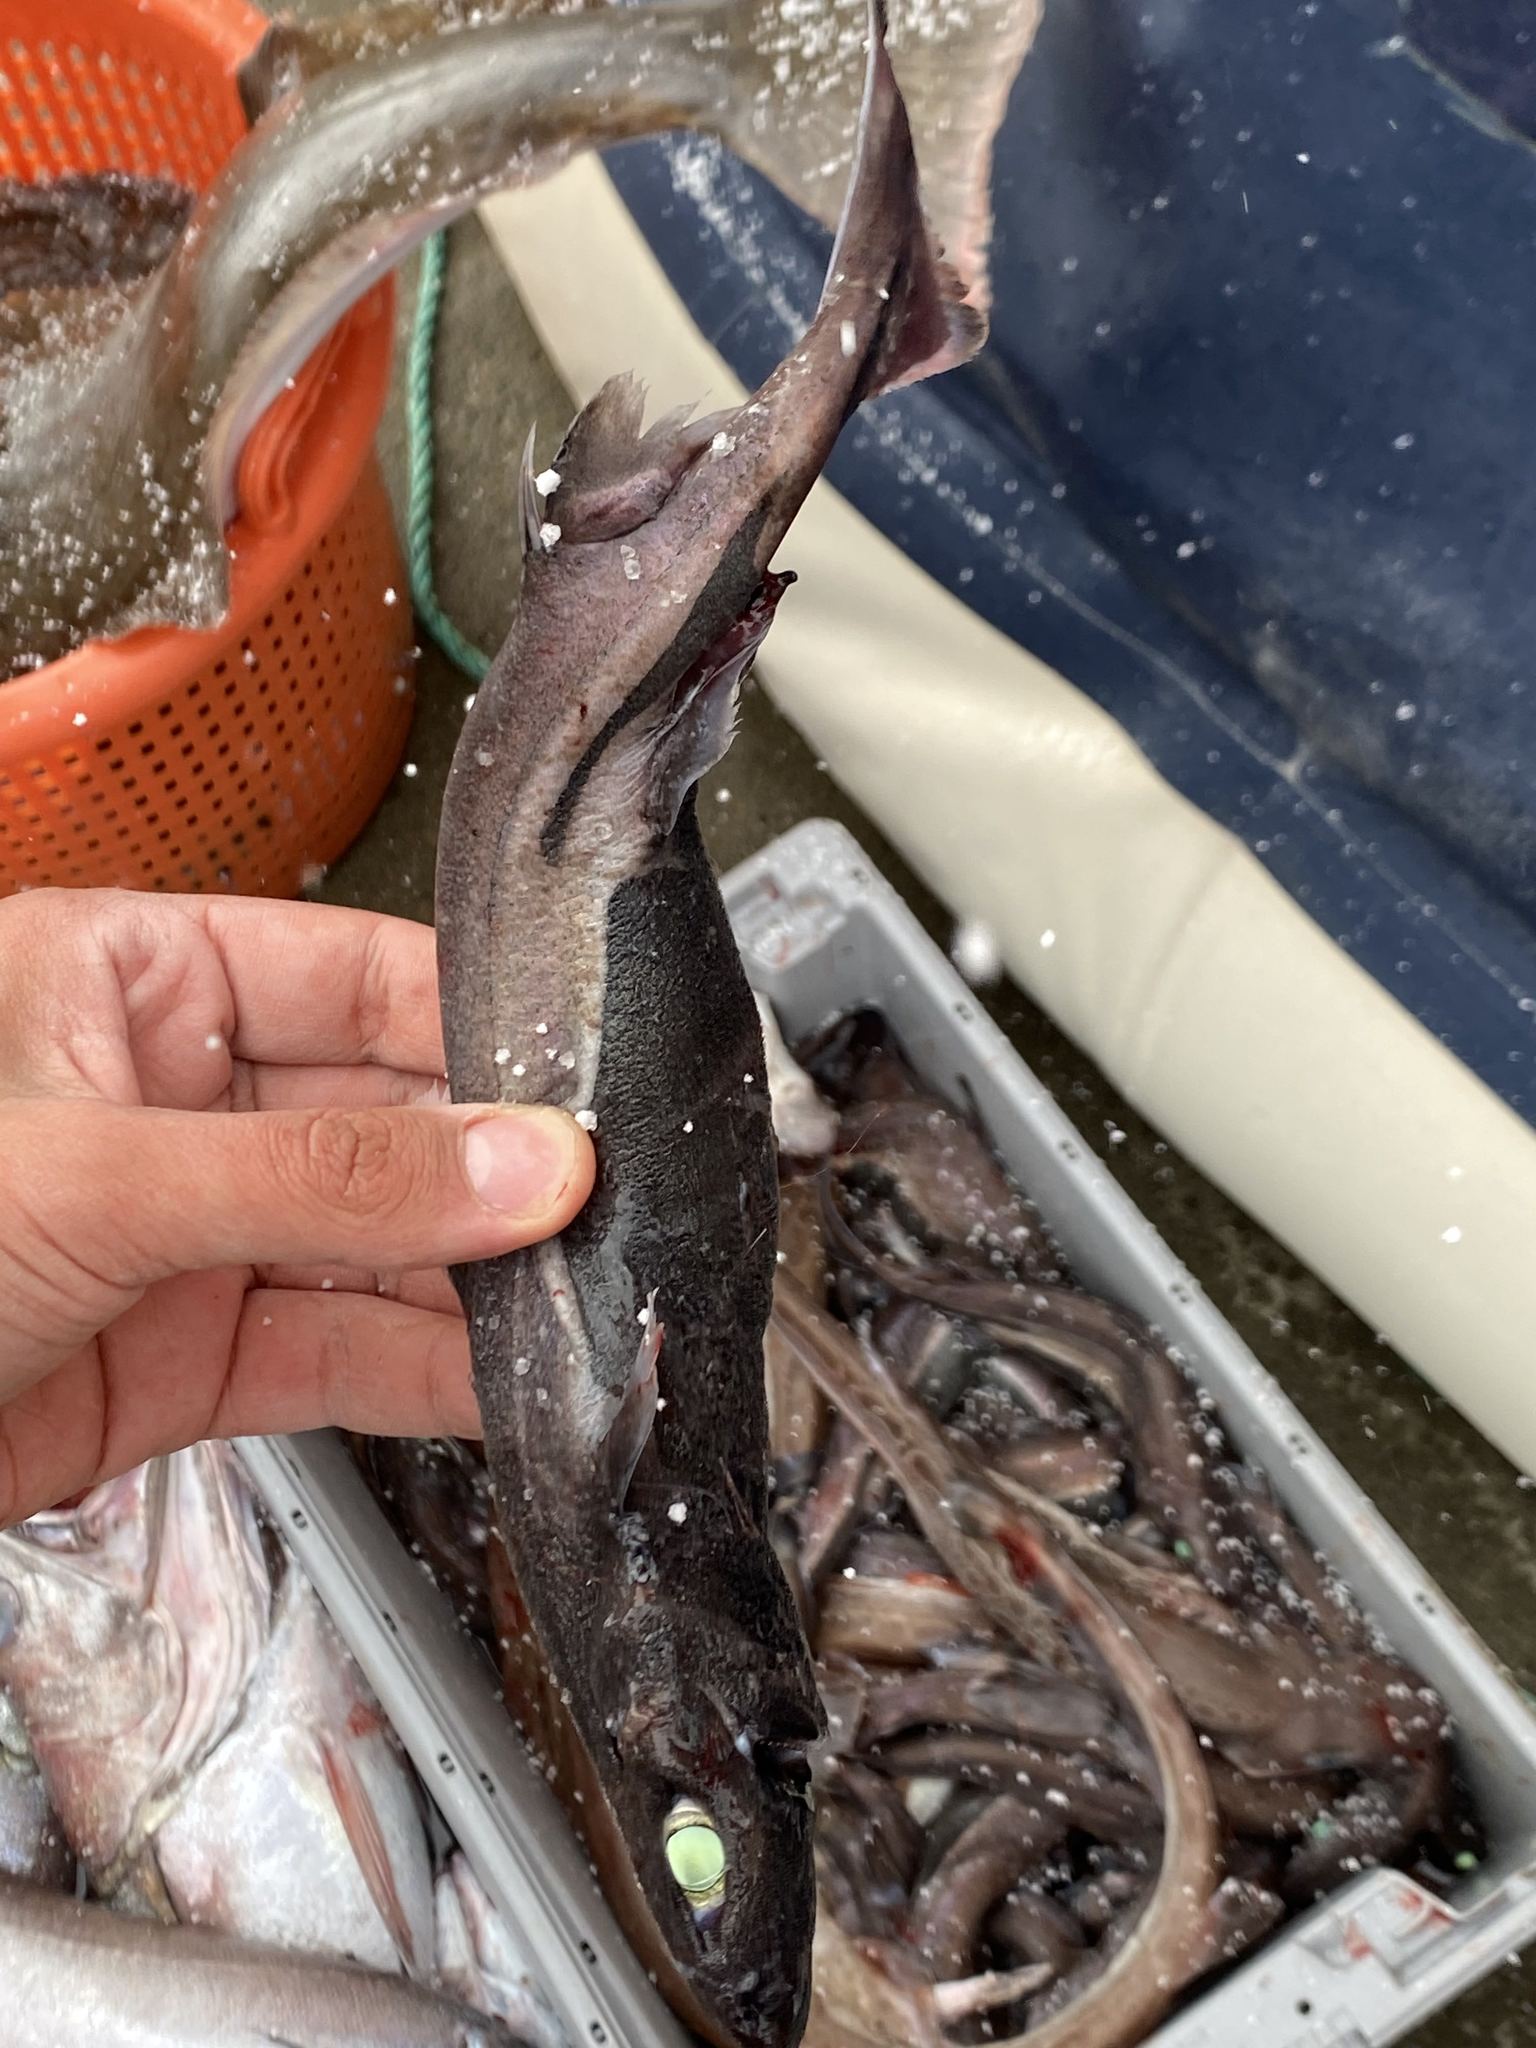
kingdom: Animalia
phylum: Chordata
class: Elasmobranchii
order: Squaliformes
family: Etmopteridae
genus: Etmopterus
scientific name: Etmopterus spinax
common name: Velvet belly
